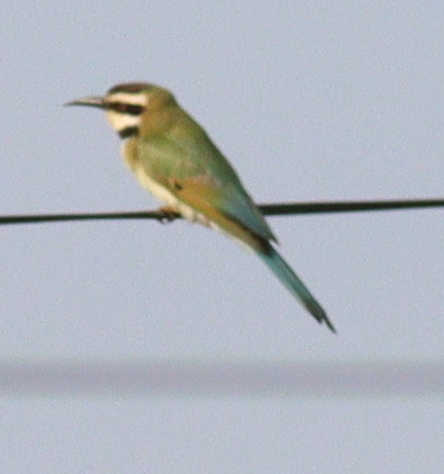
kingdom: Animalia
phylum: Chordata
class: Aves
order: Coraciiformes
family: Meropidae
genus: Merops
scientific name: Merops albicollis
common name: White-throated bee-eater
